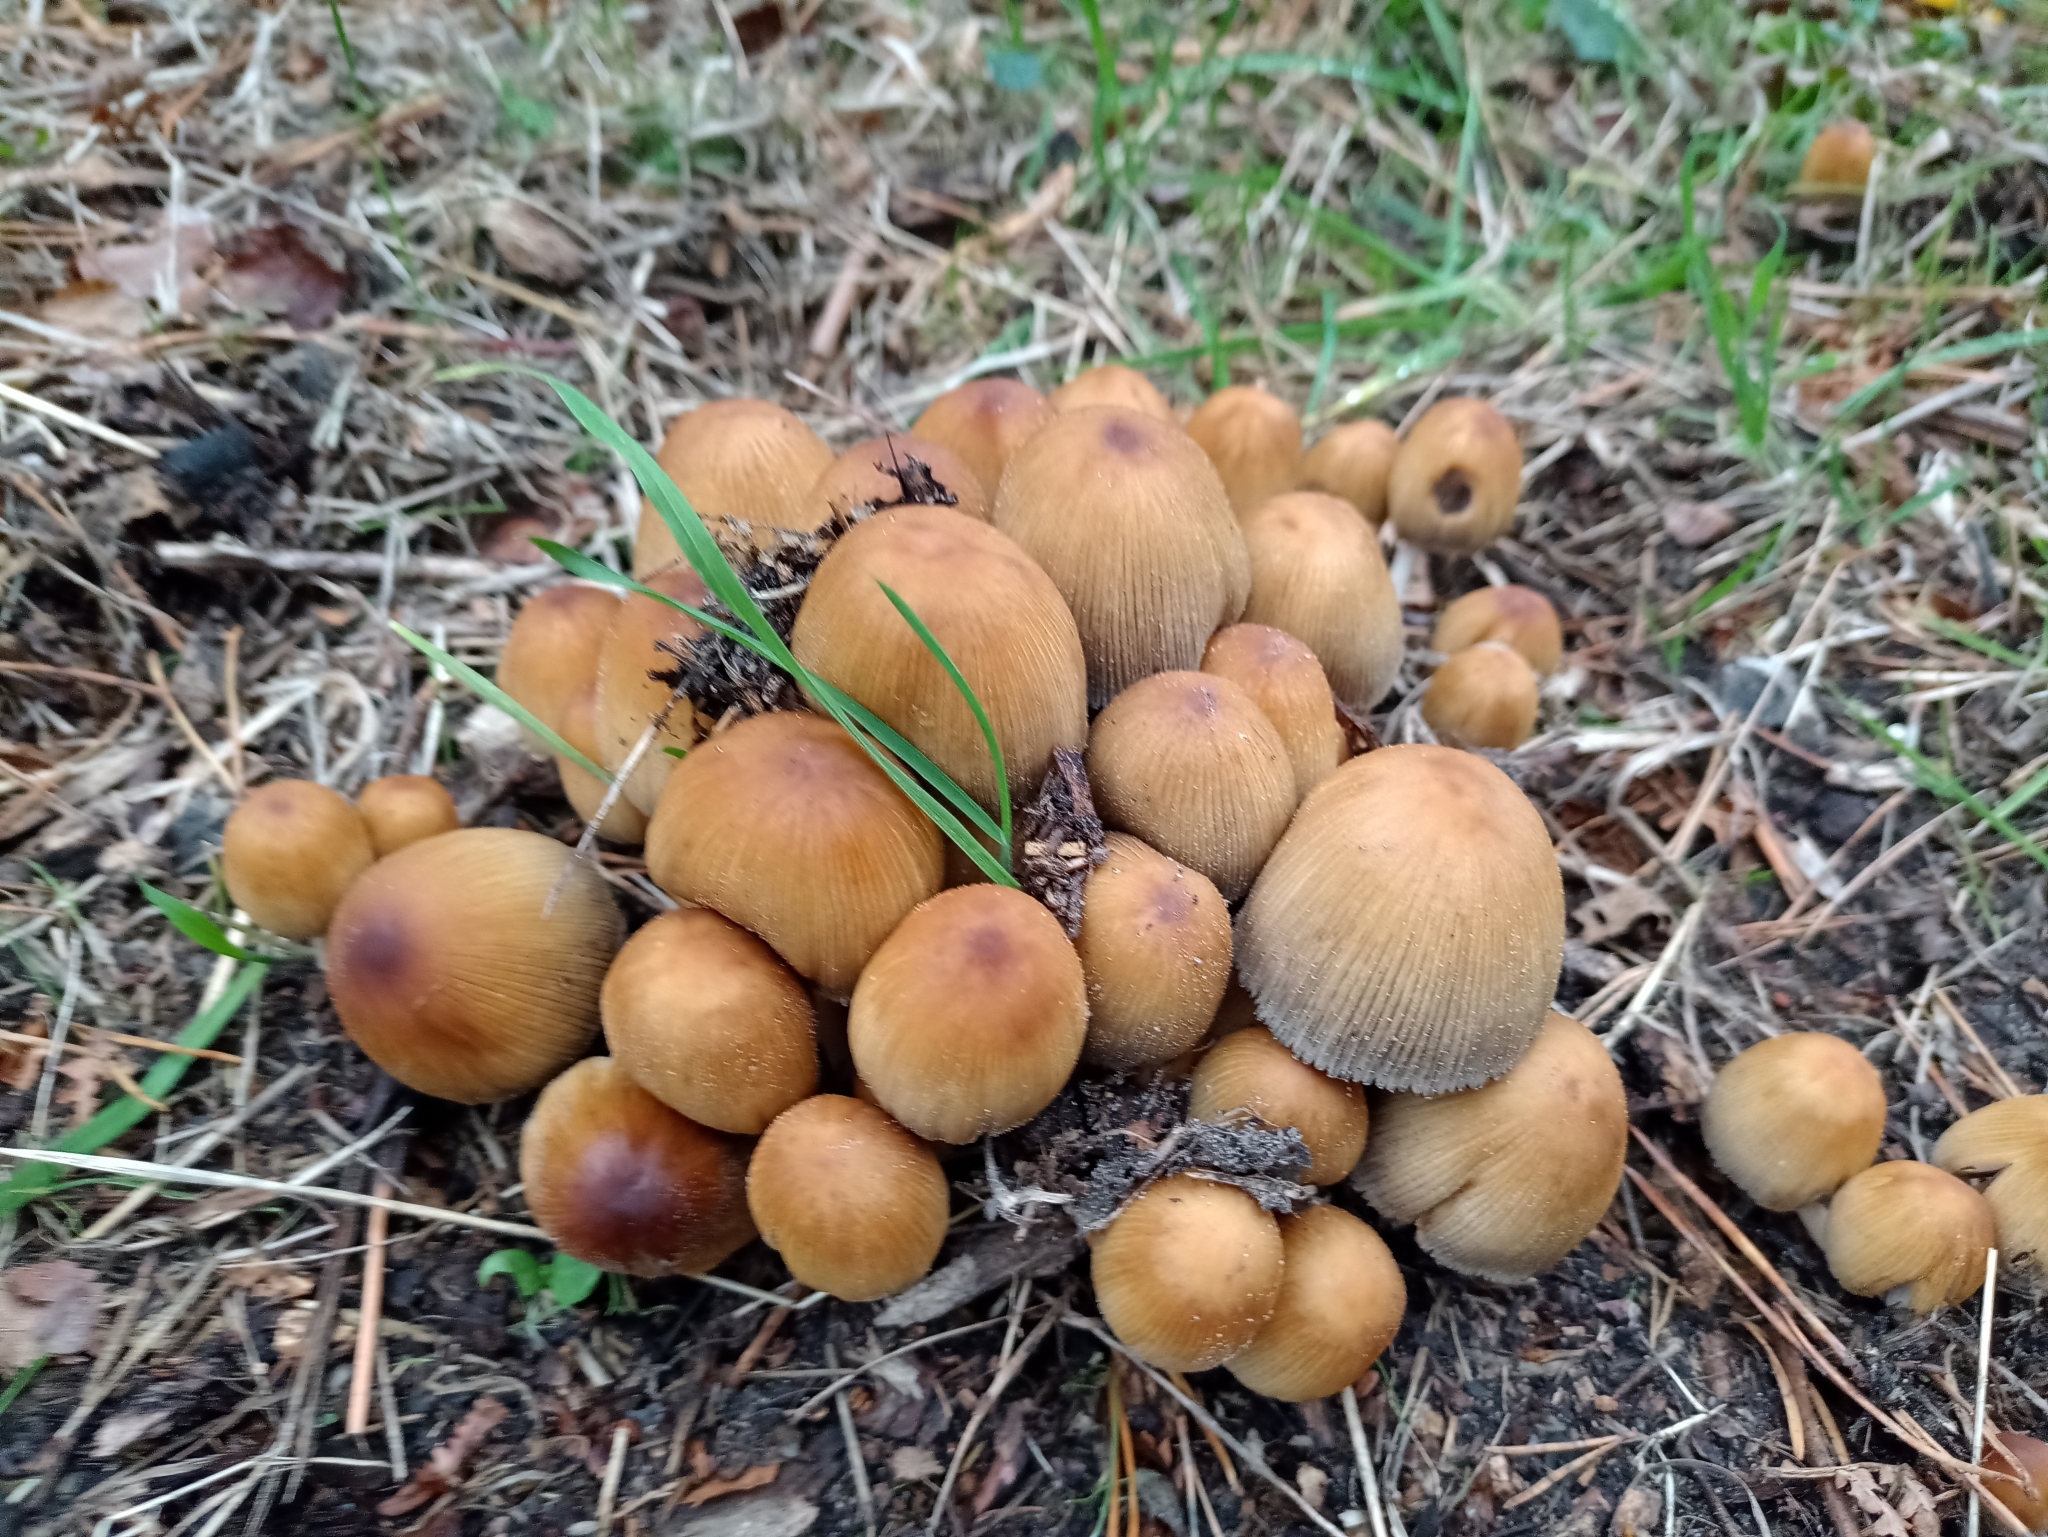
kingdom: Fungi
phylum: Basidiomycota
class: Agaricomycetes
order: Agaricales
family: Psathyrellaceae
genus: Coprinellus
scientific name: Coprinellus micaceus
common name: Glistening ink-cap
